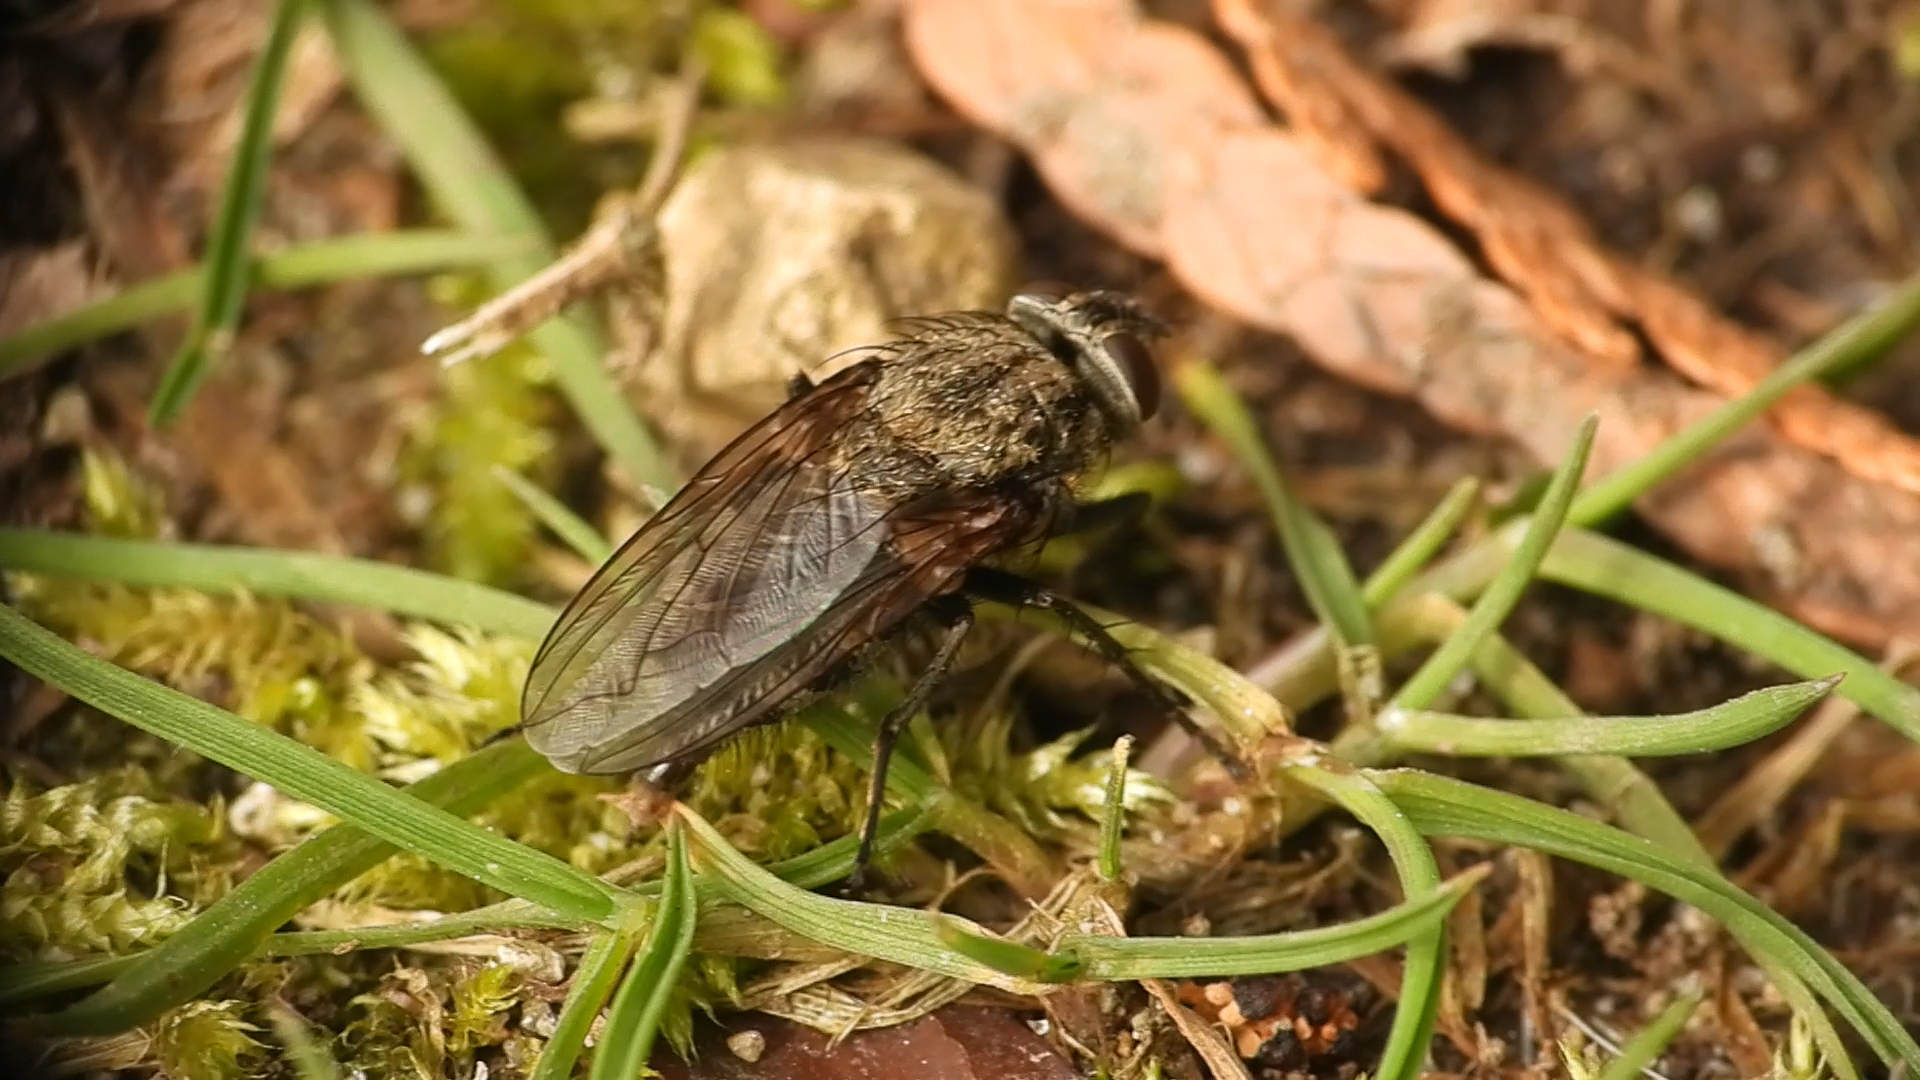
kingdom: Animalia
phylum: Arthropoda
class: Insecta
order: Diptera
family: Polleniidae
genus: Pollenia
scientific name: Pollenia
